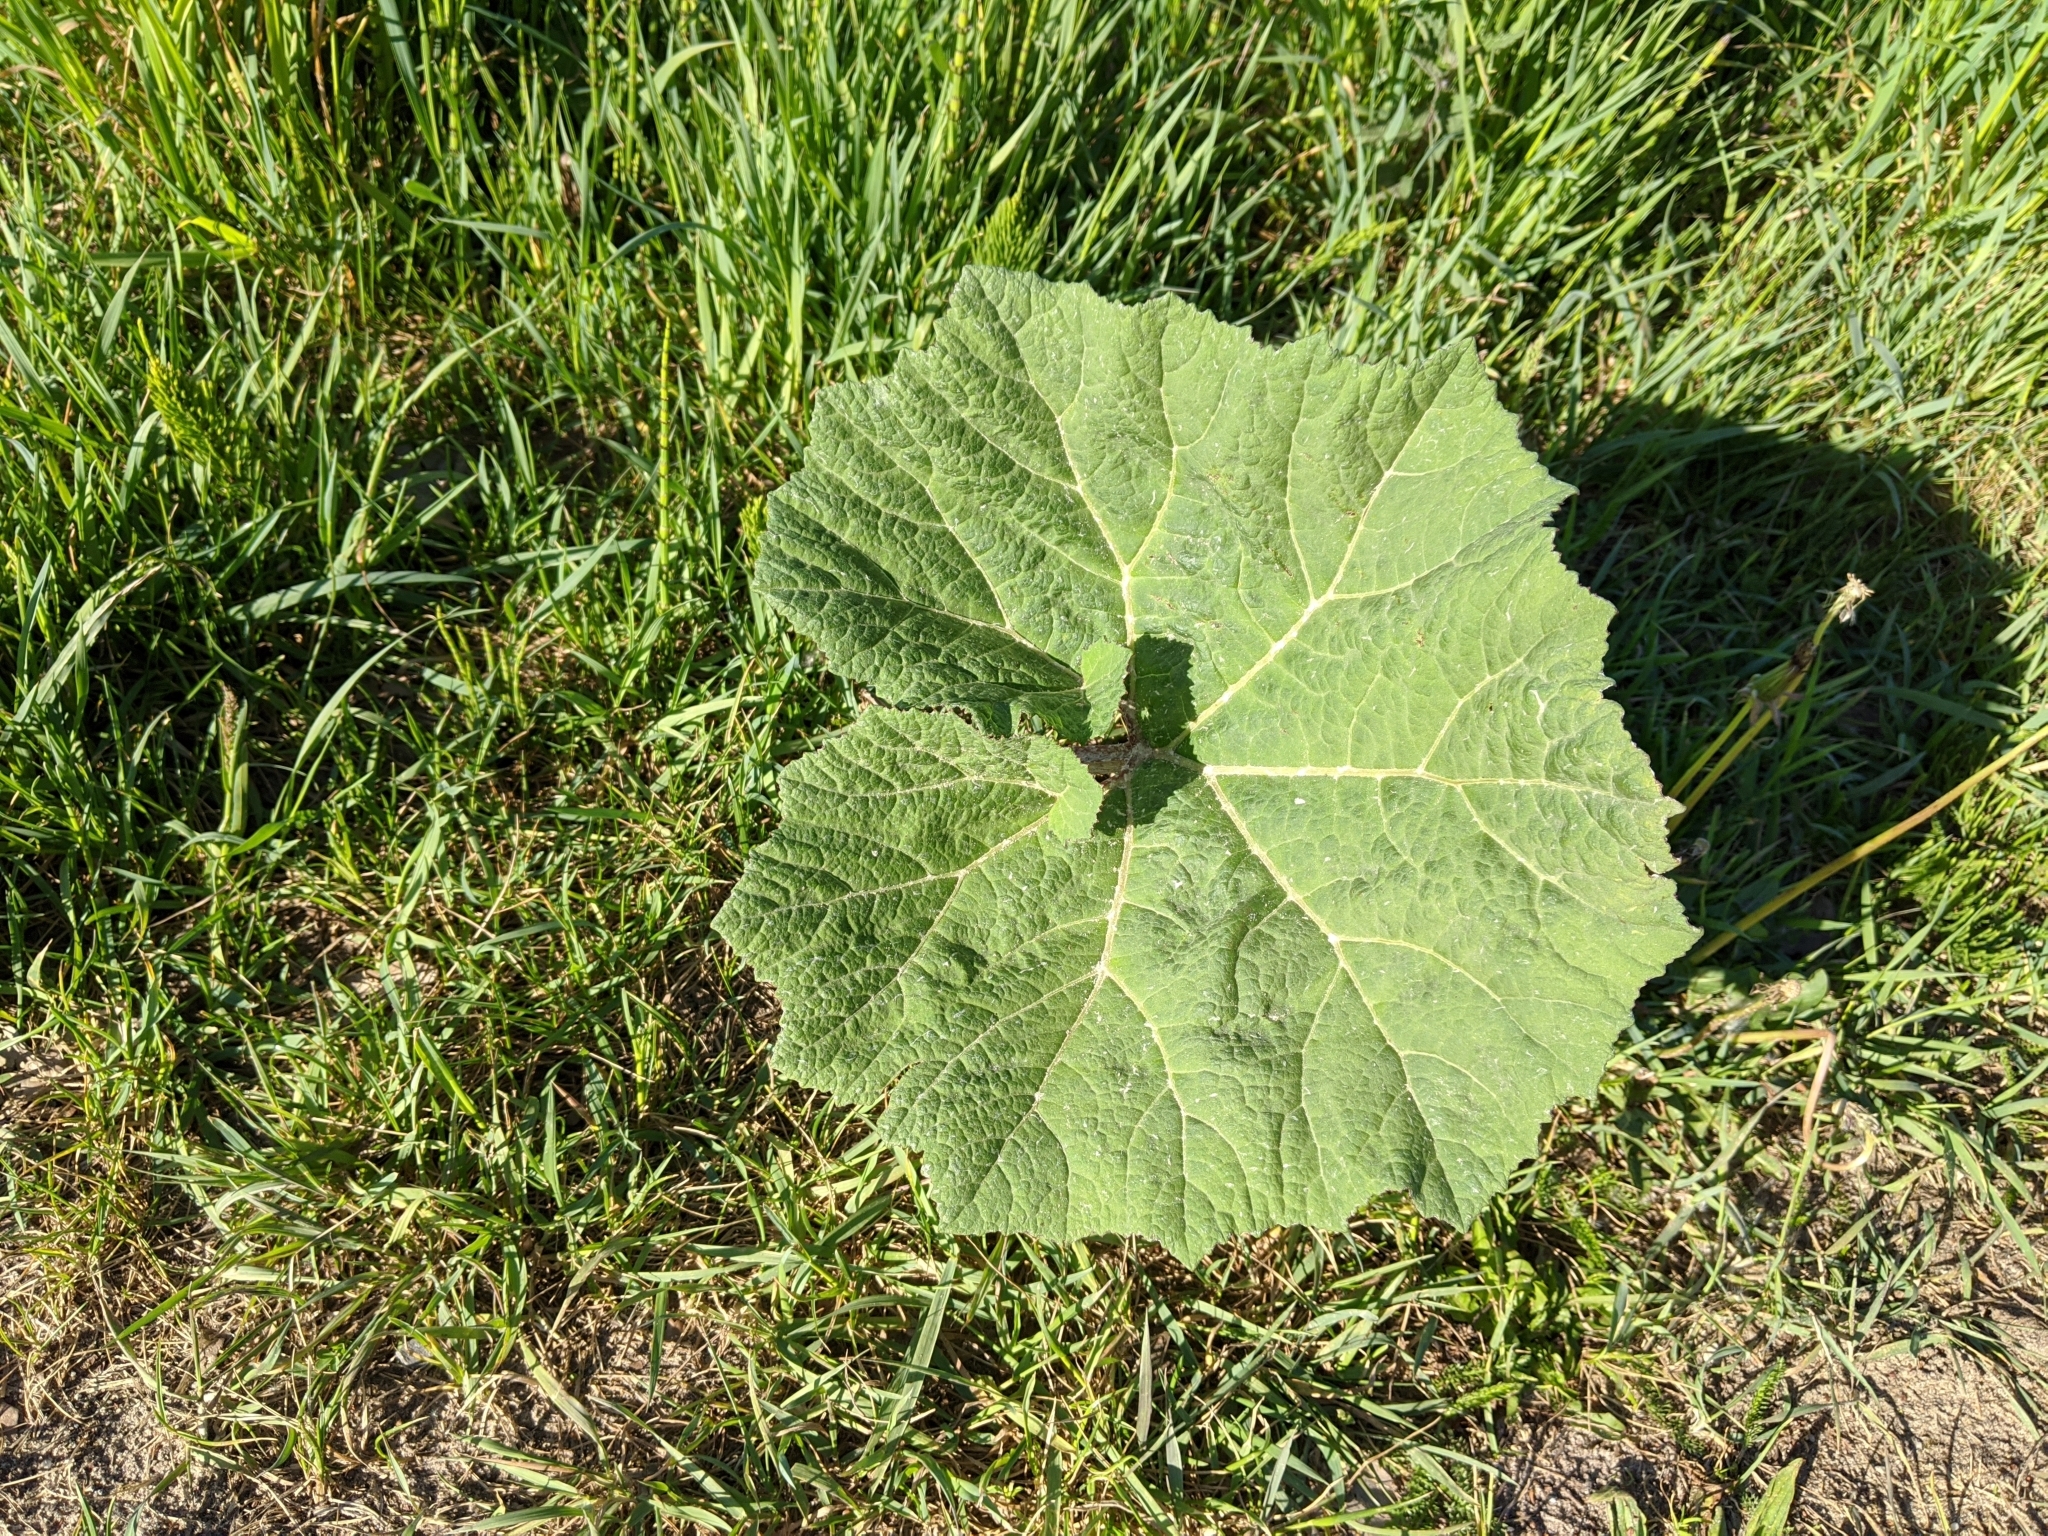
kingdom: Plantae
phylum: Tracheophyta
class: Magnoliopsida
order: Asterales
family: Asteraceae
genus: Petasites
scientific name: Petasites hybridus
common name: Butterbur
